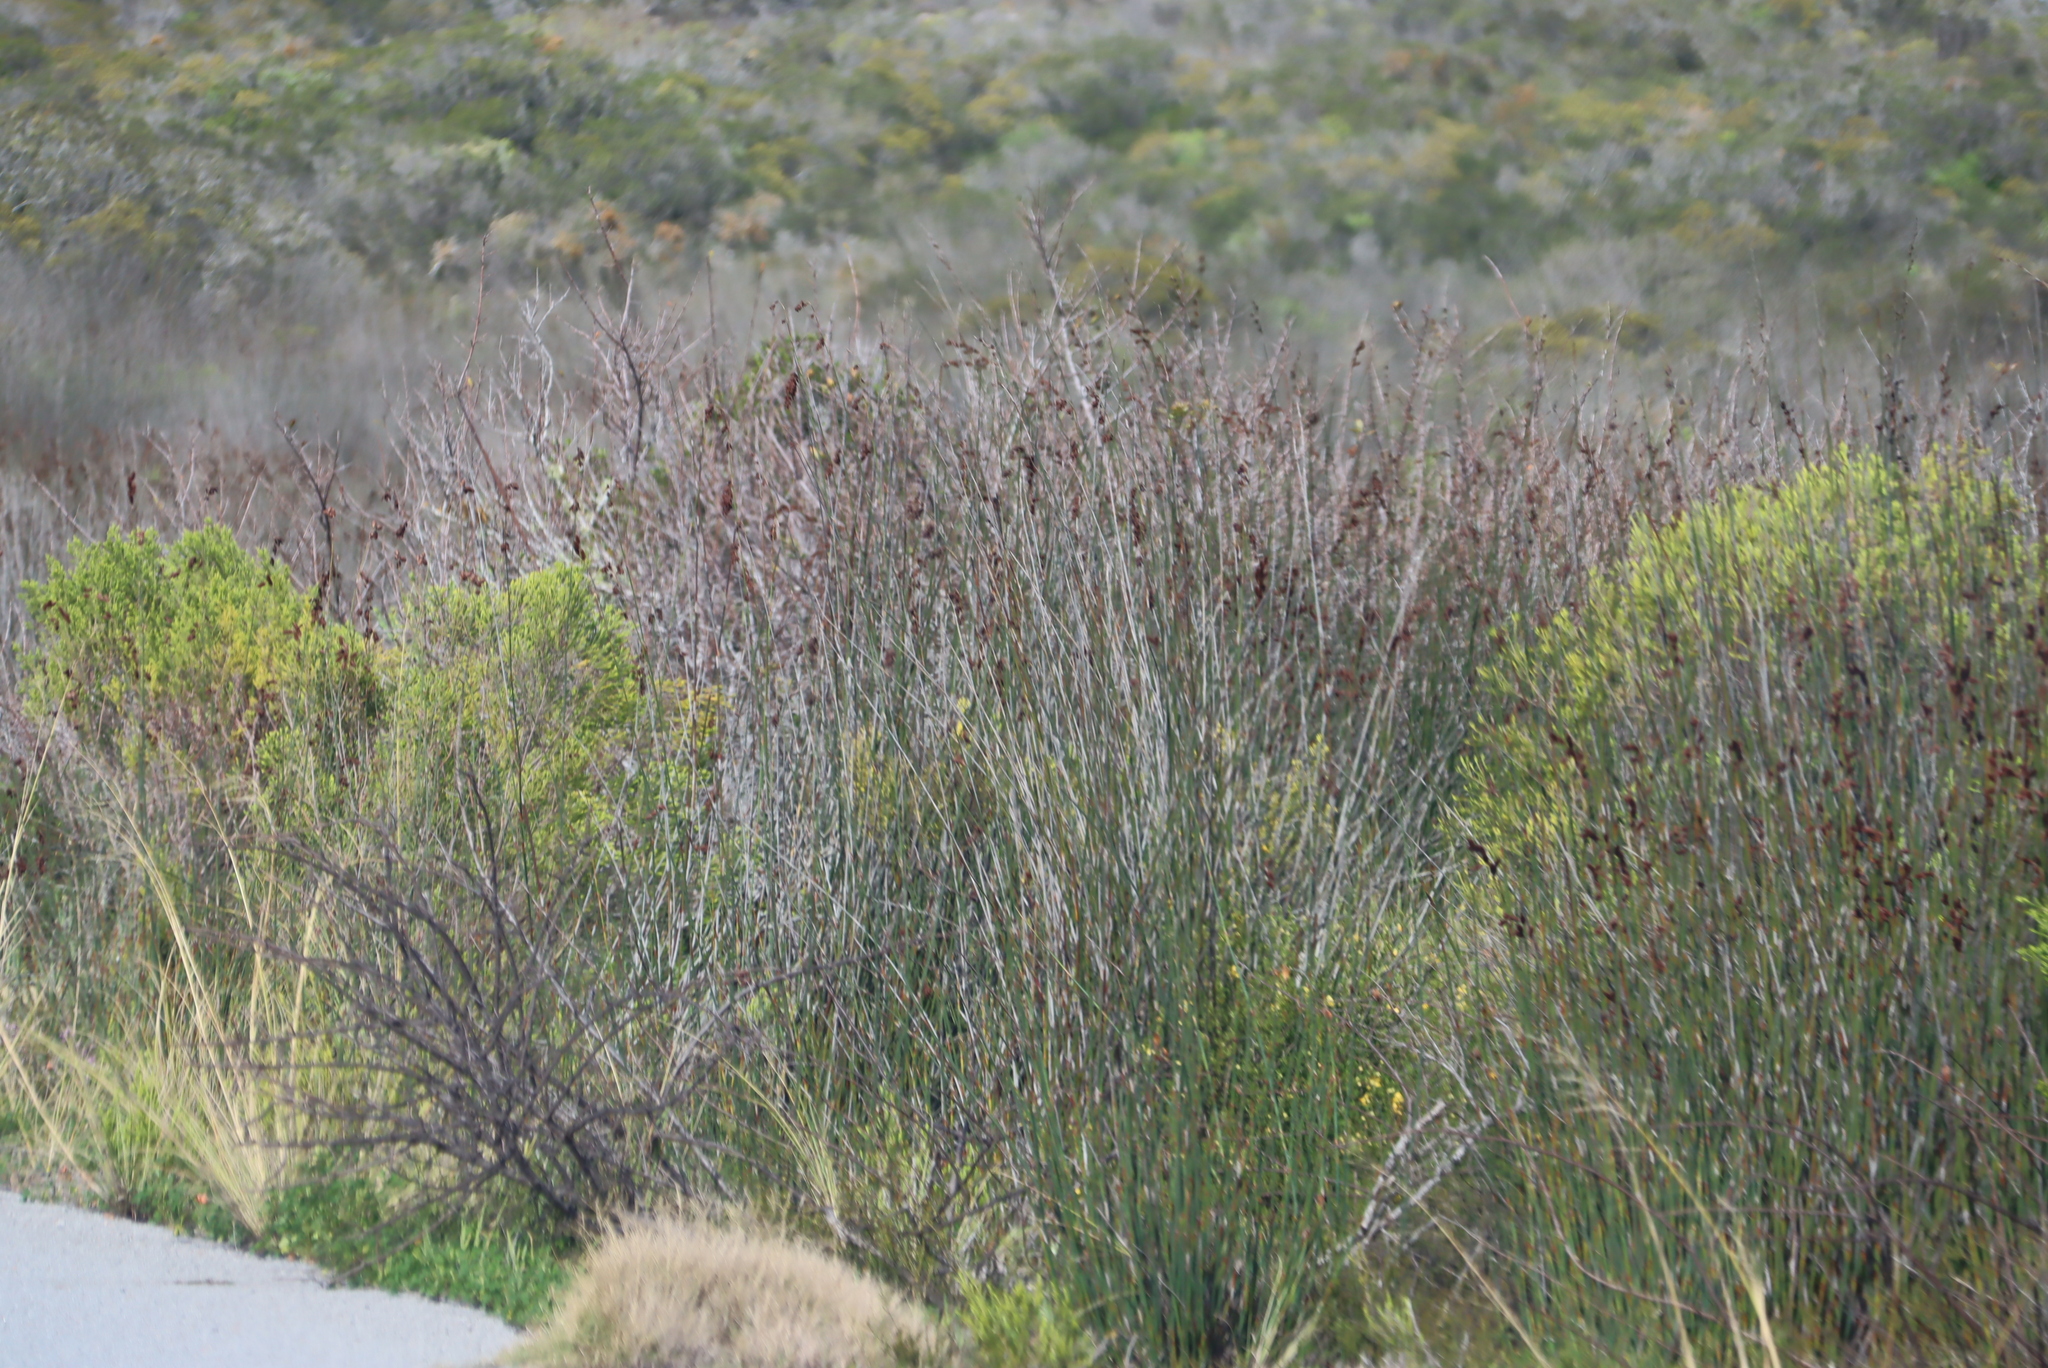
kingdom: Plantae
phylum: Tracheophyta
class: Liliopsida
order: Poales
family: Restionaceae
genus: Thamnochortus
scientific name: Thamnochortus spicigerus
